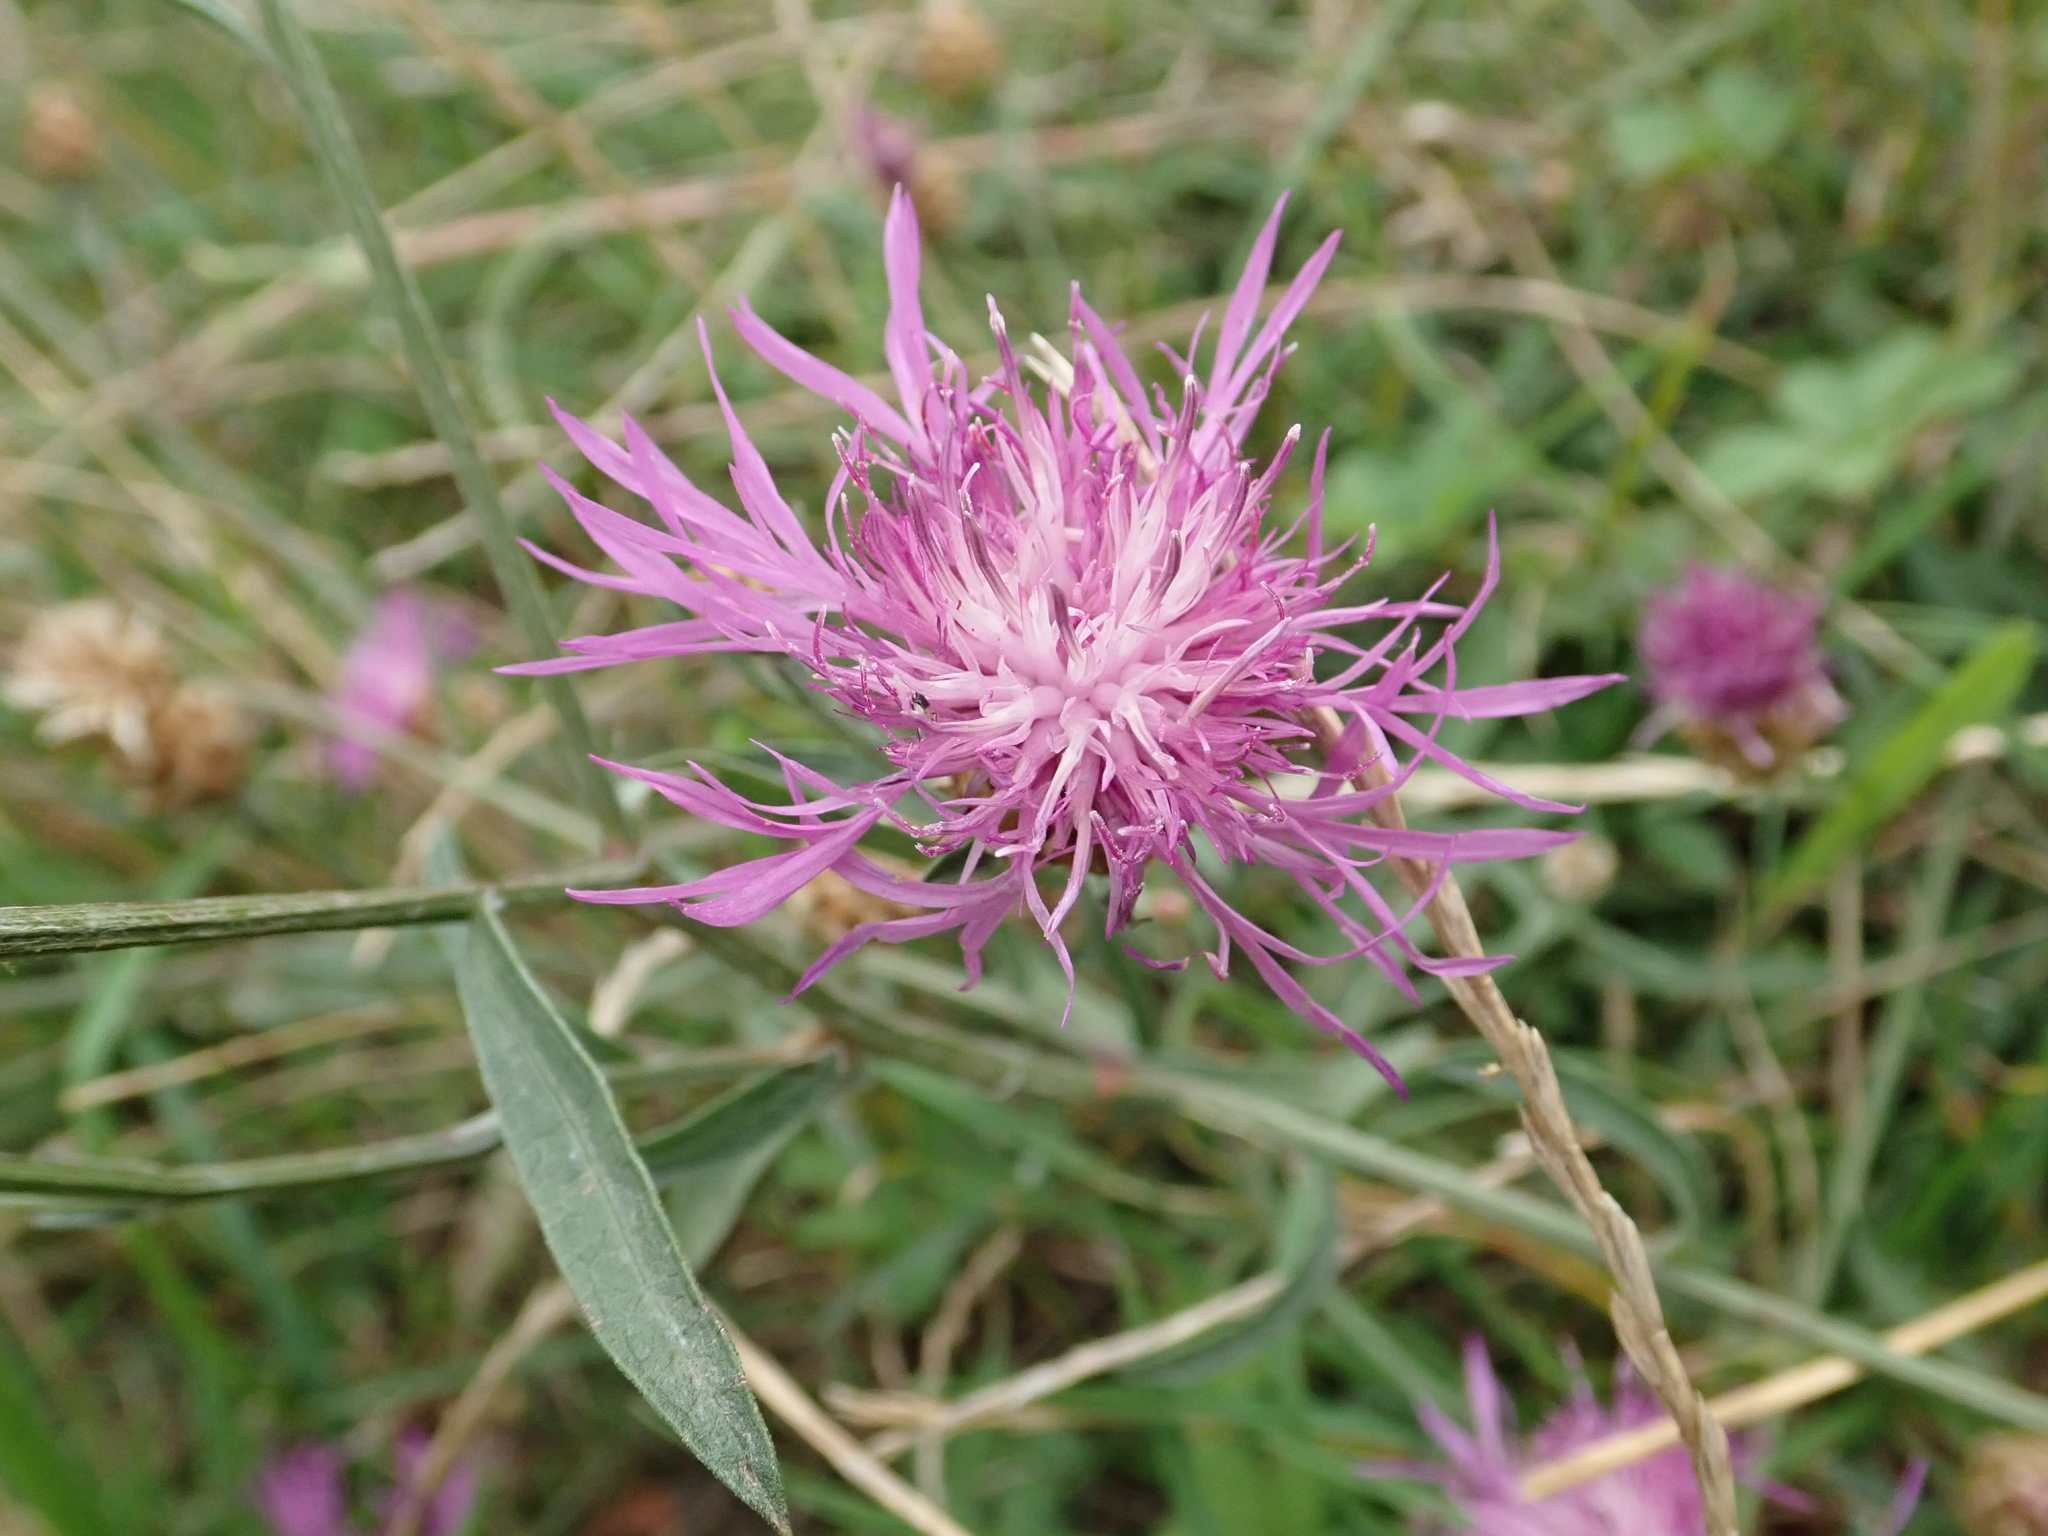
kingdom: Plantae
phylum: Tracheophyta
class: Magnoliopsida
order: Asterales
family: Asteraceae
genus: Centaurea
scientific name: Centaurea jacea
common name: Brown knapweed
